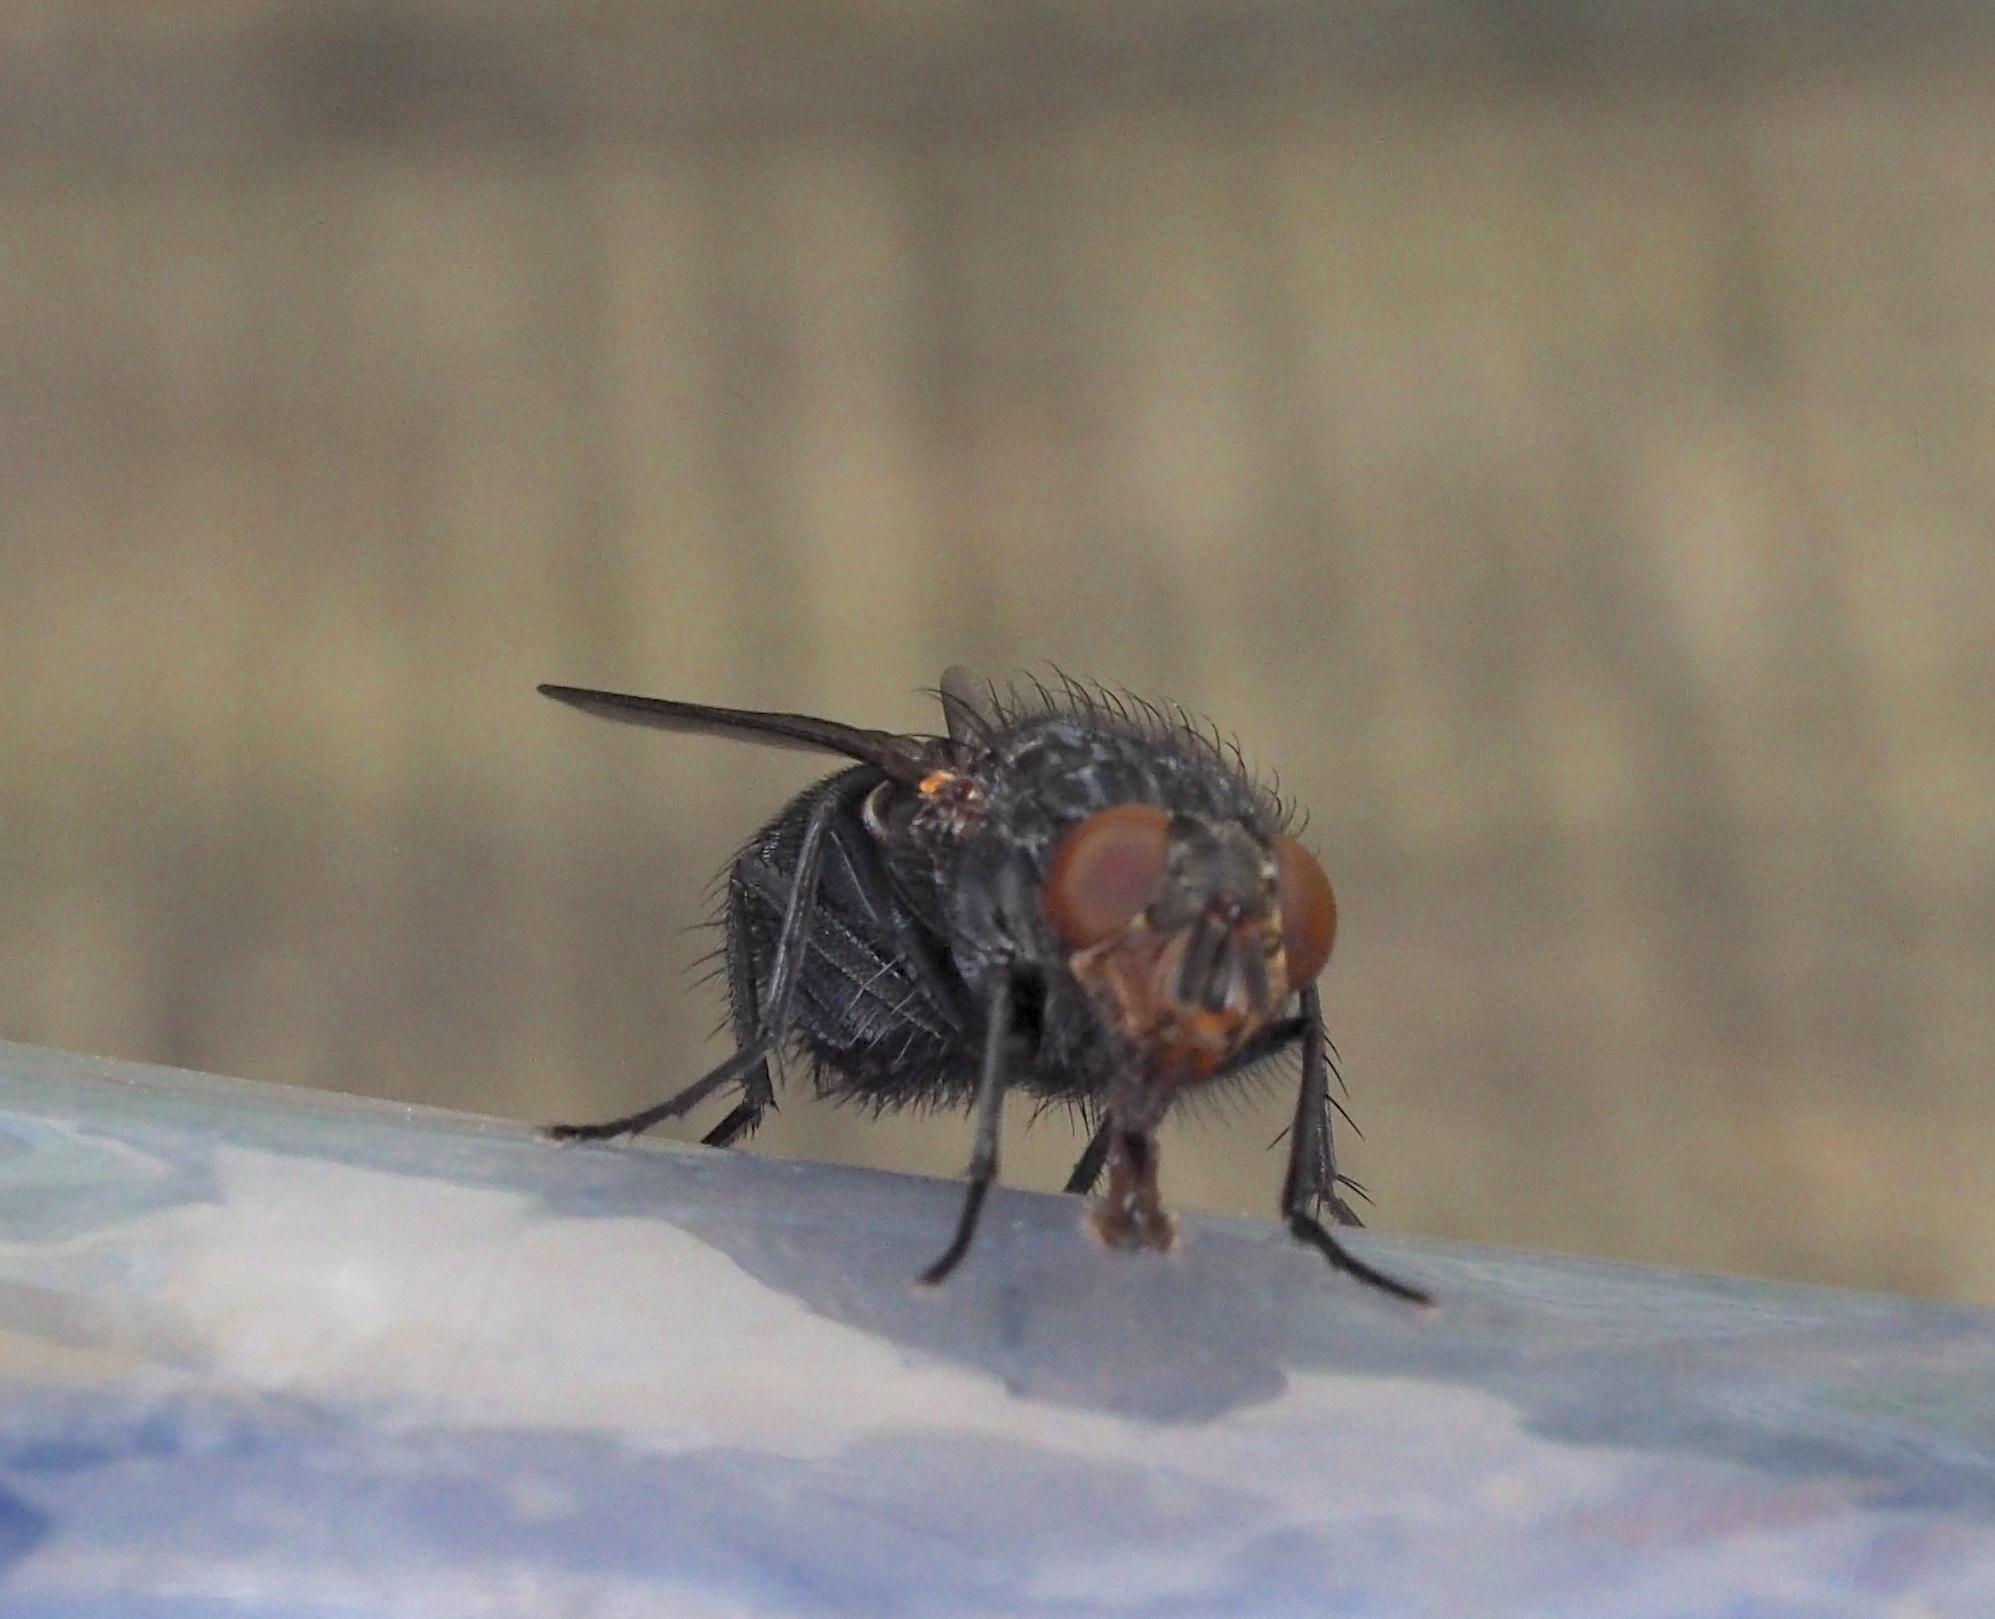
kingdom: Animalia
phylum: Arthropoda
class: Insecta
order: Diptera
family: Calliphoridae
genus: Calliphora
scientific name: Calliphora vicina
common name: Common blow flie
